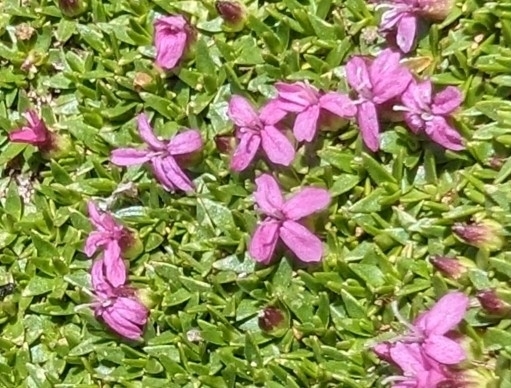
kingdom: Plantae
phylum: Tracheophyta
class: Magnoliopsida
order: Caryophyllales
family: Caryophyllaceae
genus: Silene
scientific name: Silene acaulis
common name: Moss campion
